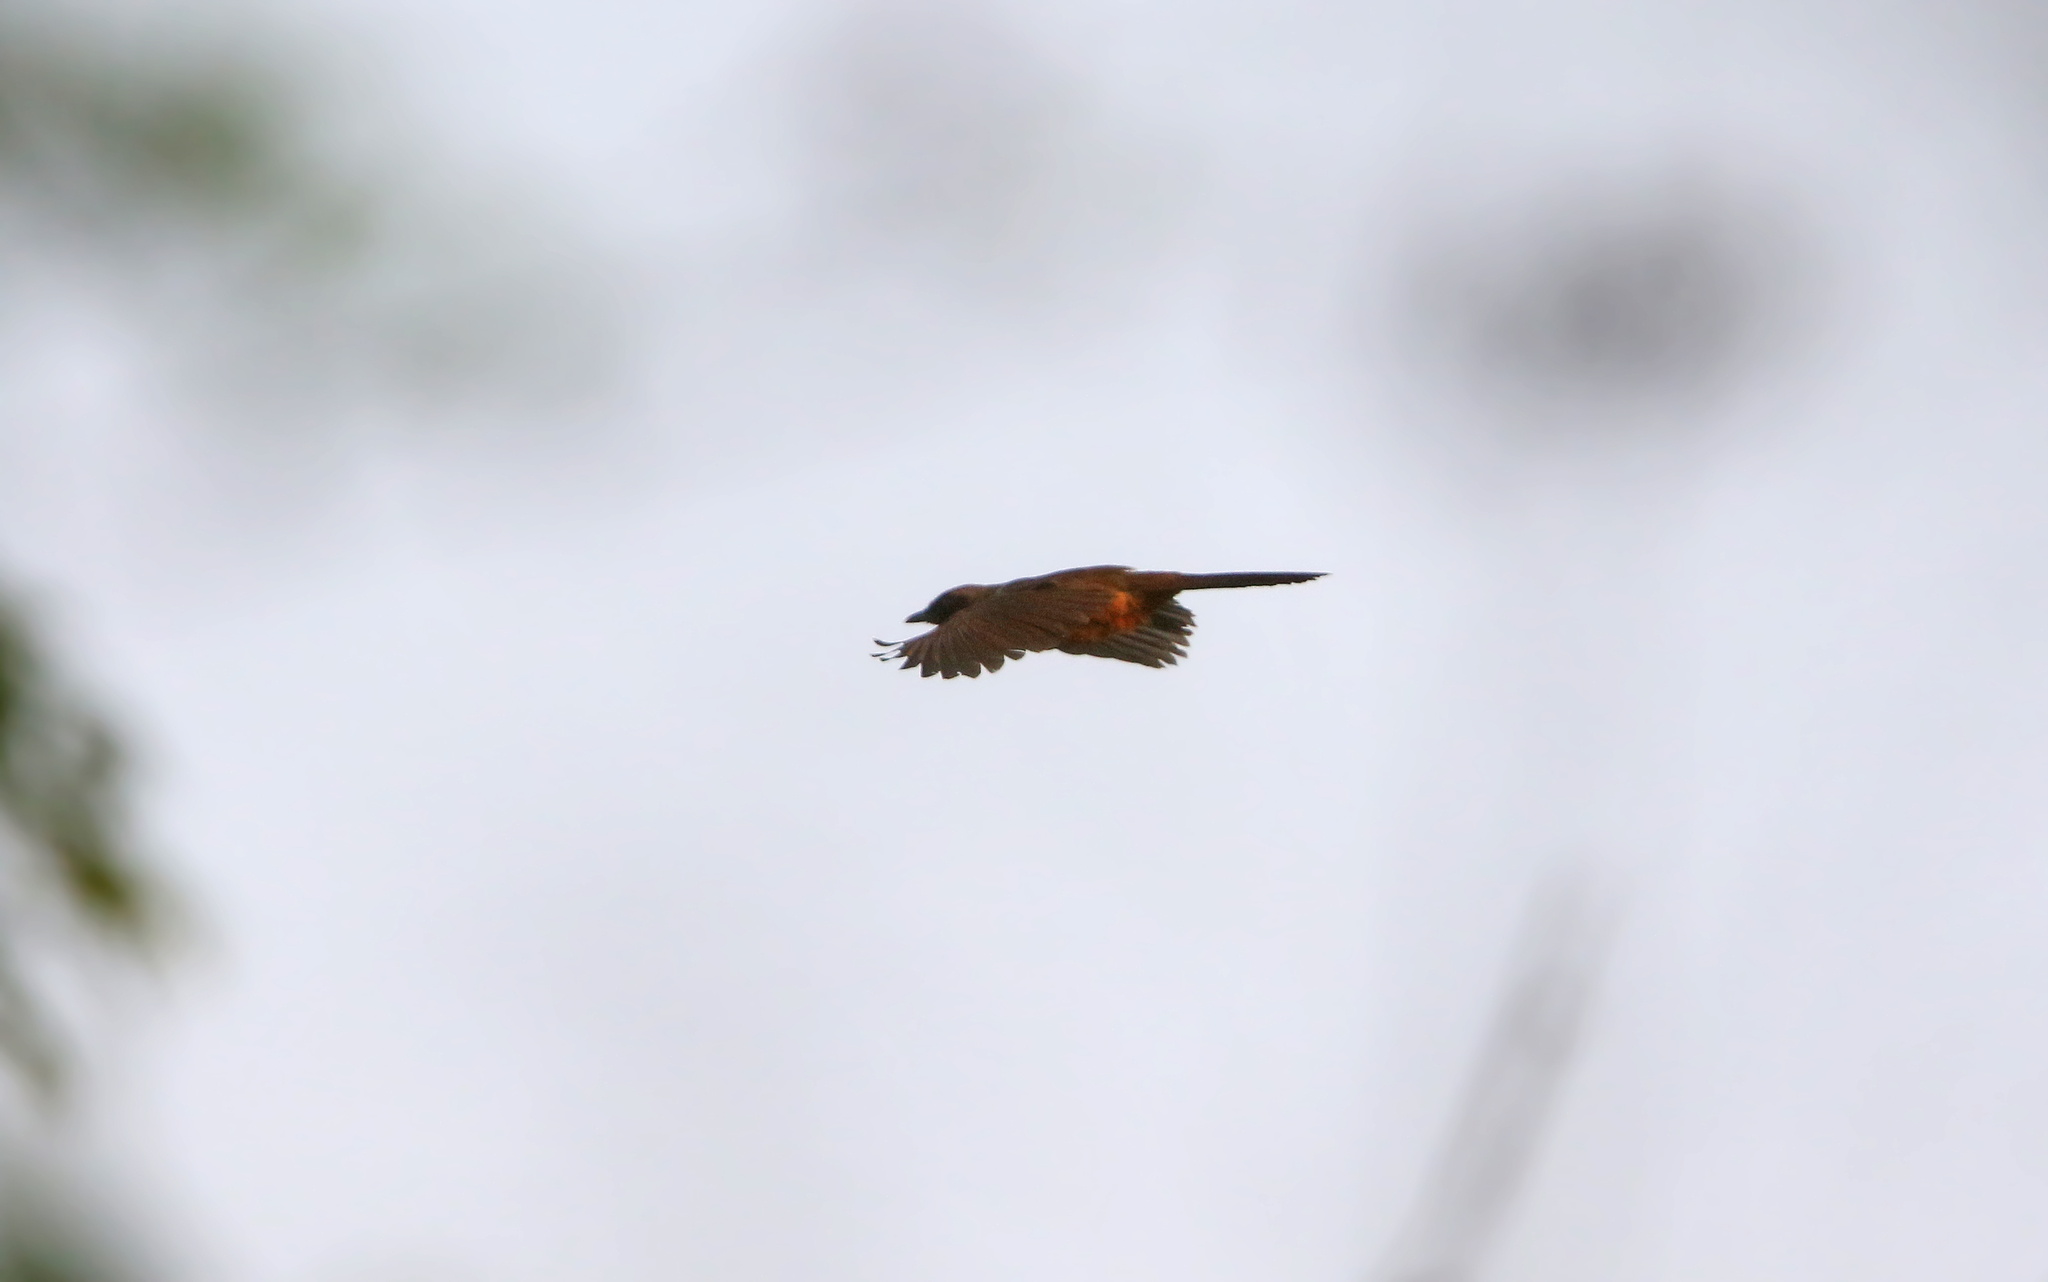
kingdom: Animalia
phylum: Chordata
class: Aves
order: Passeriformes
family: Leiothrichidae
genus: Garrulax
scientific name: Garrulax perspicillatus
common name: Masked laughingthrush
